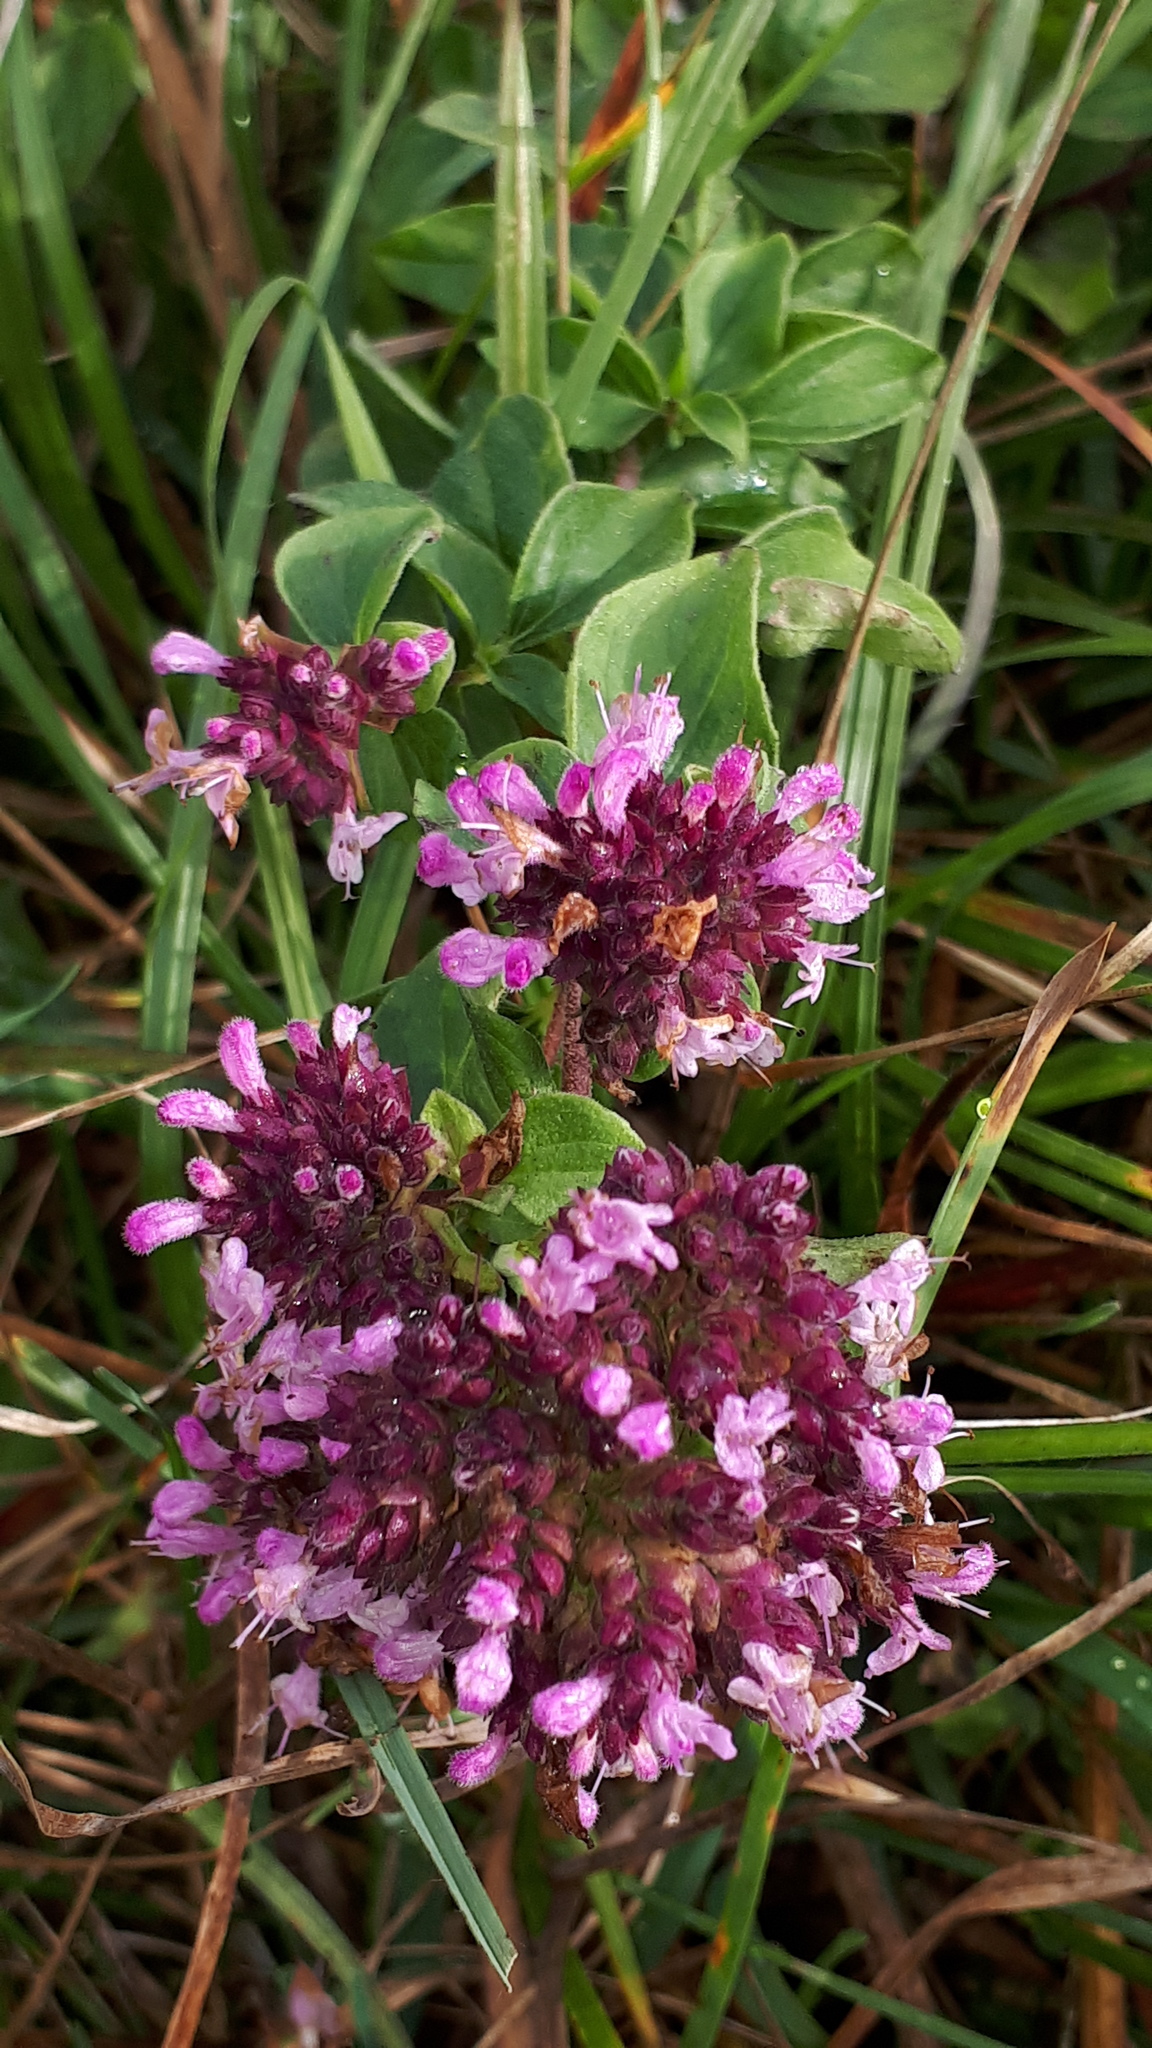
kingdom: Plantae
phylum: Tracheophyta
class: Magnoliopsida
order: Lamiales
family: Lamiaceae
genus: Origanum
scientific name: Origanum vulgare
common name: Wild marjoram
